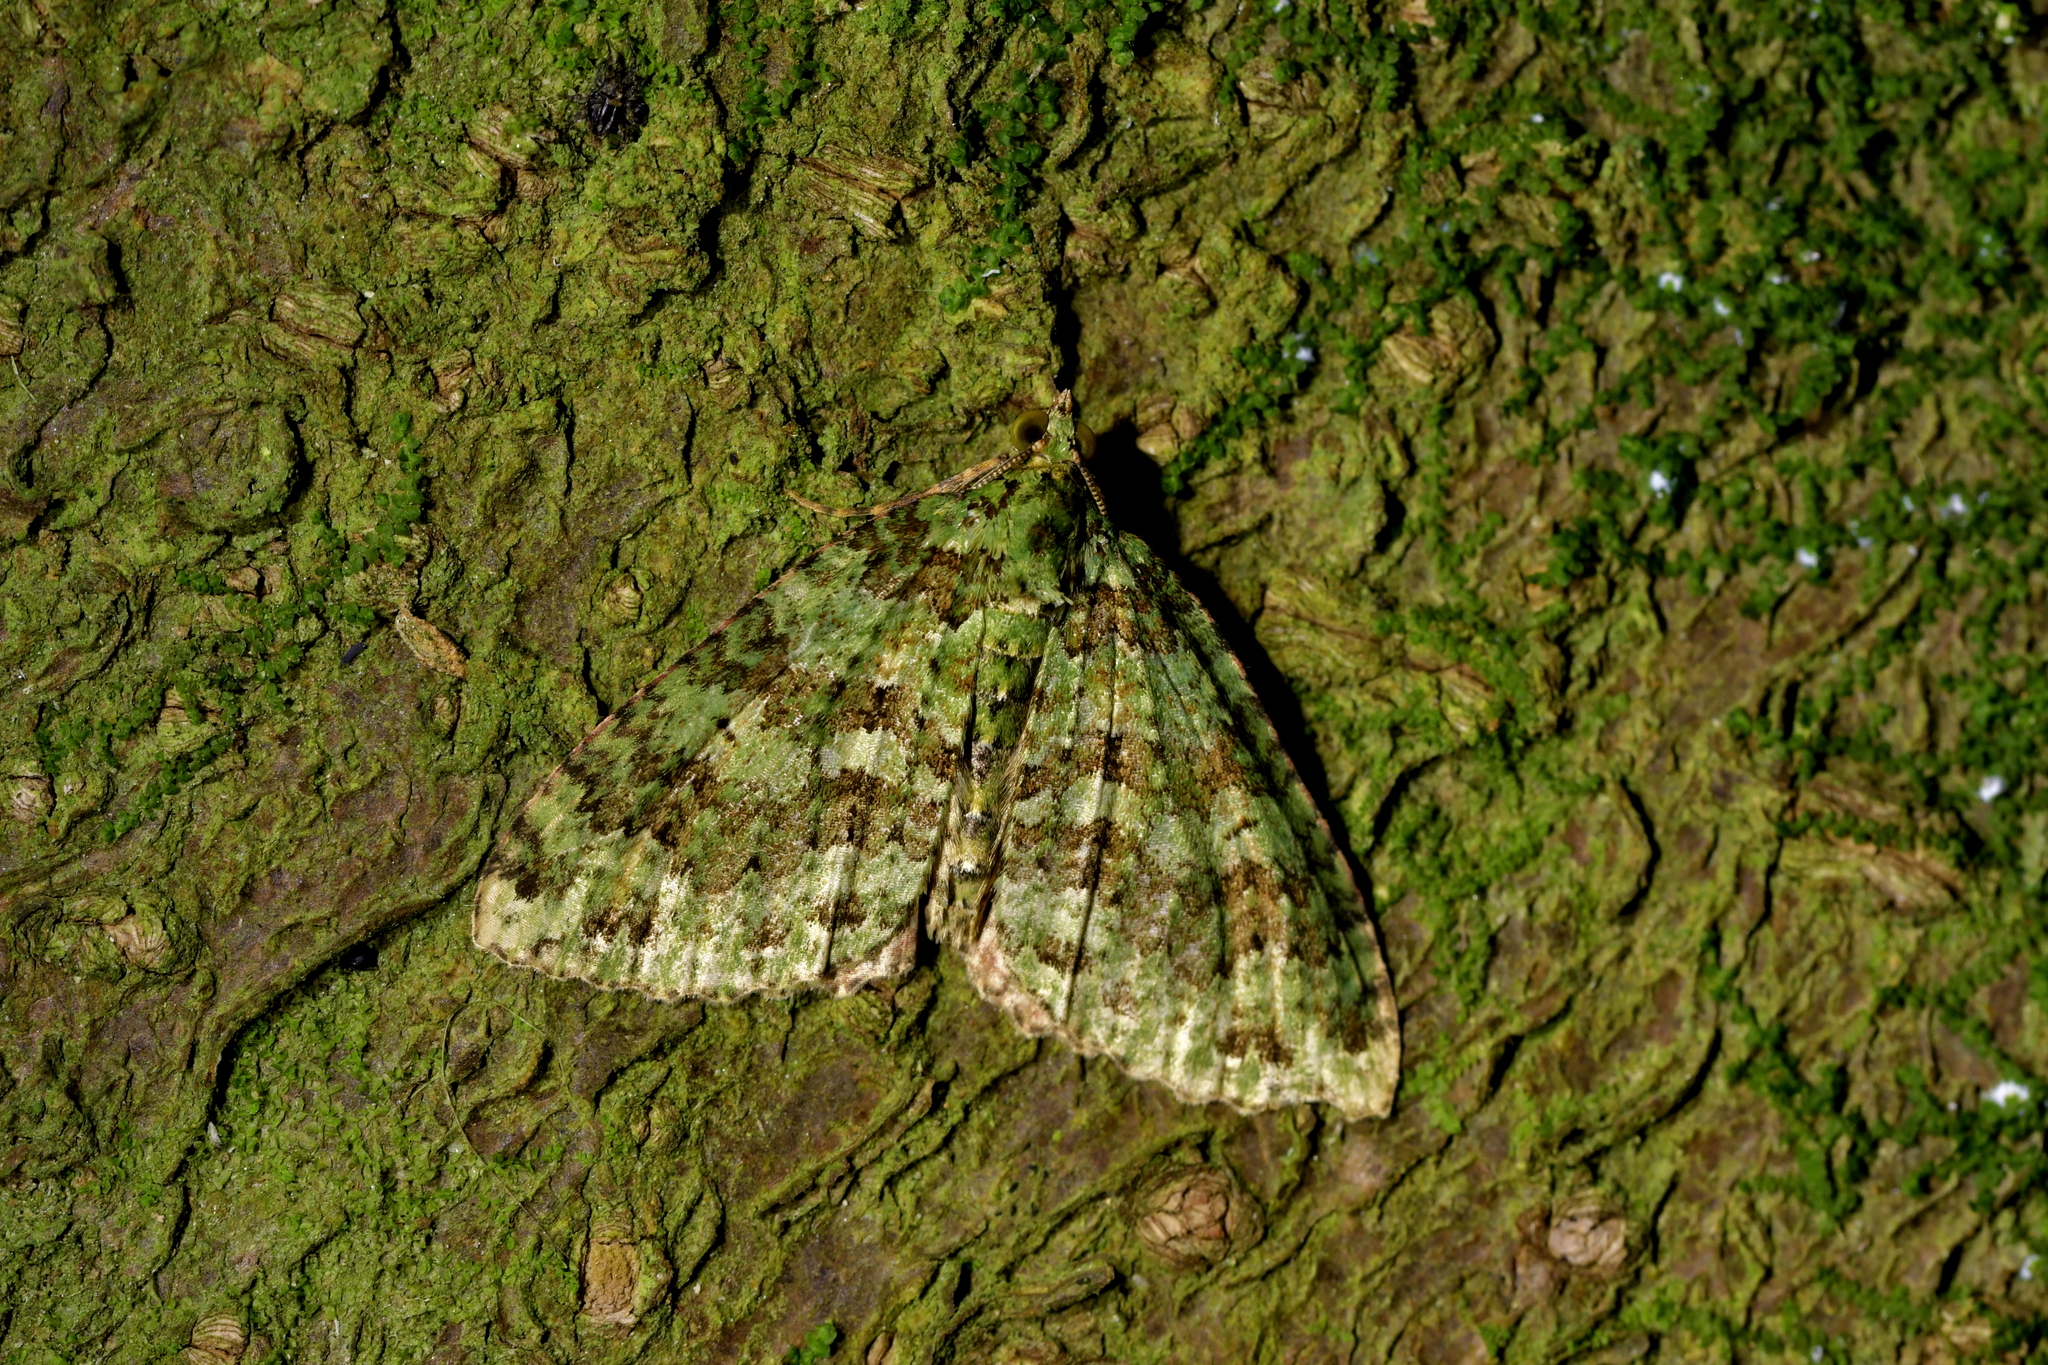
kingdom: Animalia
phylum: Arthropoda
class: Insecta
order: Lepidoptera
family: Geometridae
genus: Austrocidaria
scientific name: Austrocidaria similata
